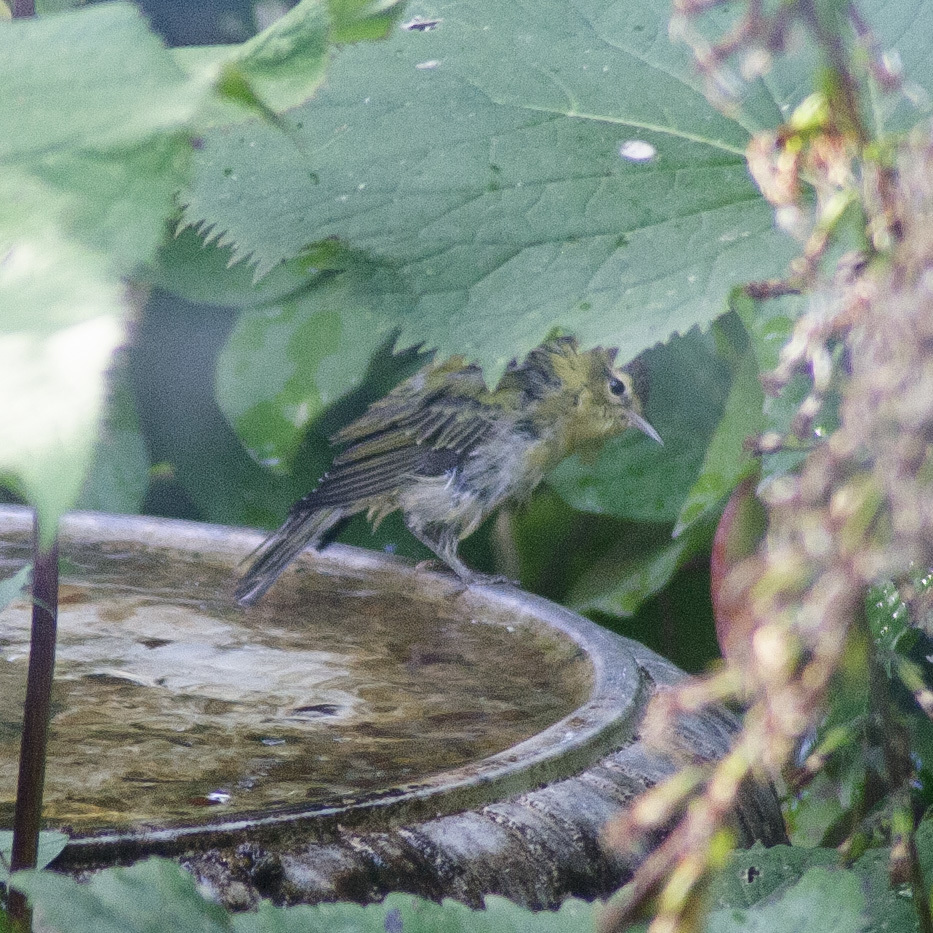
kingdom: Animalia
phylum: Chordata
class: Aves
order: Passeriformes
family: Parulidae
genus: Leiothlypis
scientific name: Leiothlypis peregrina
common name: Tennessee warbler
